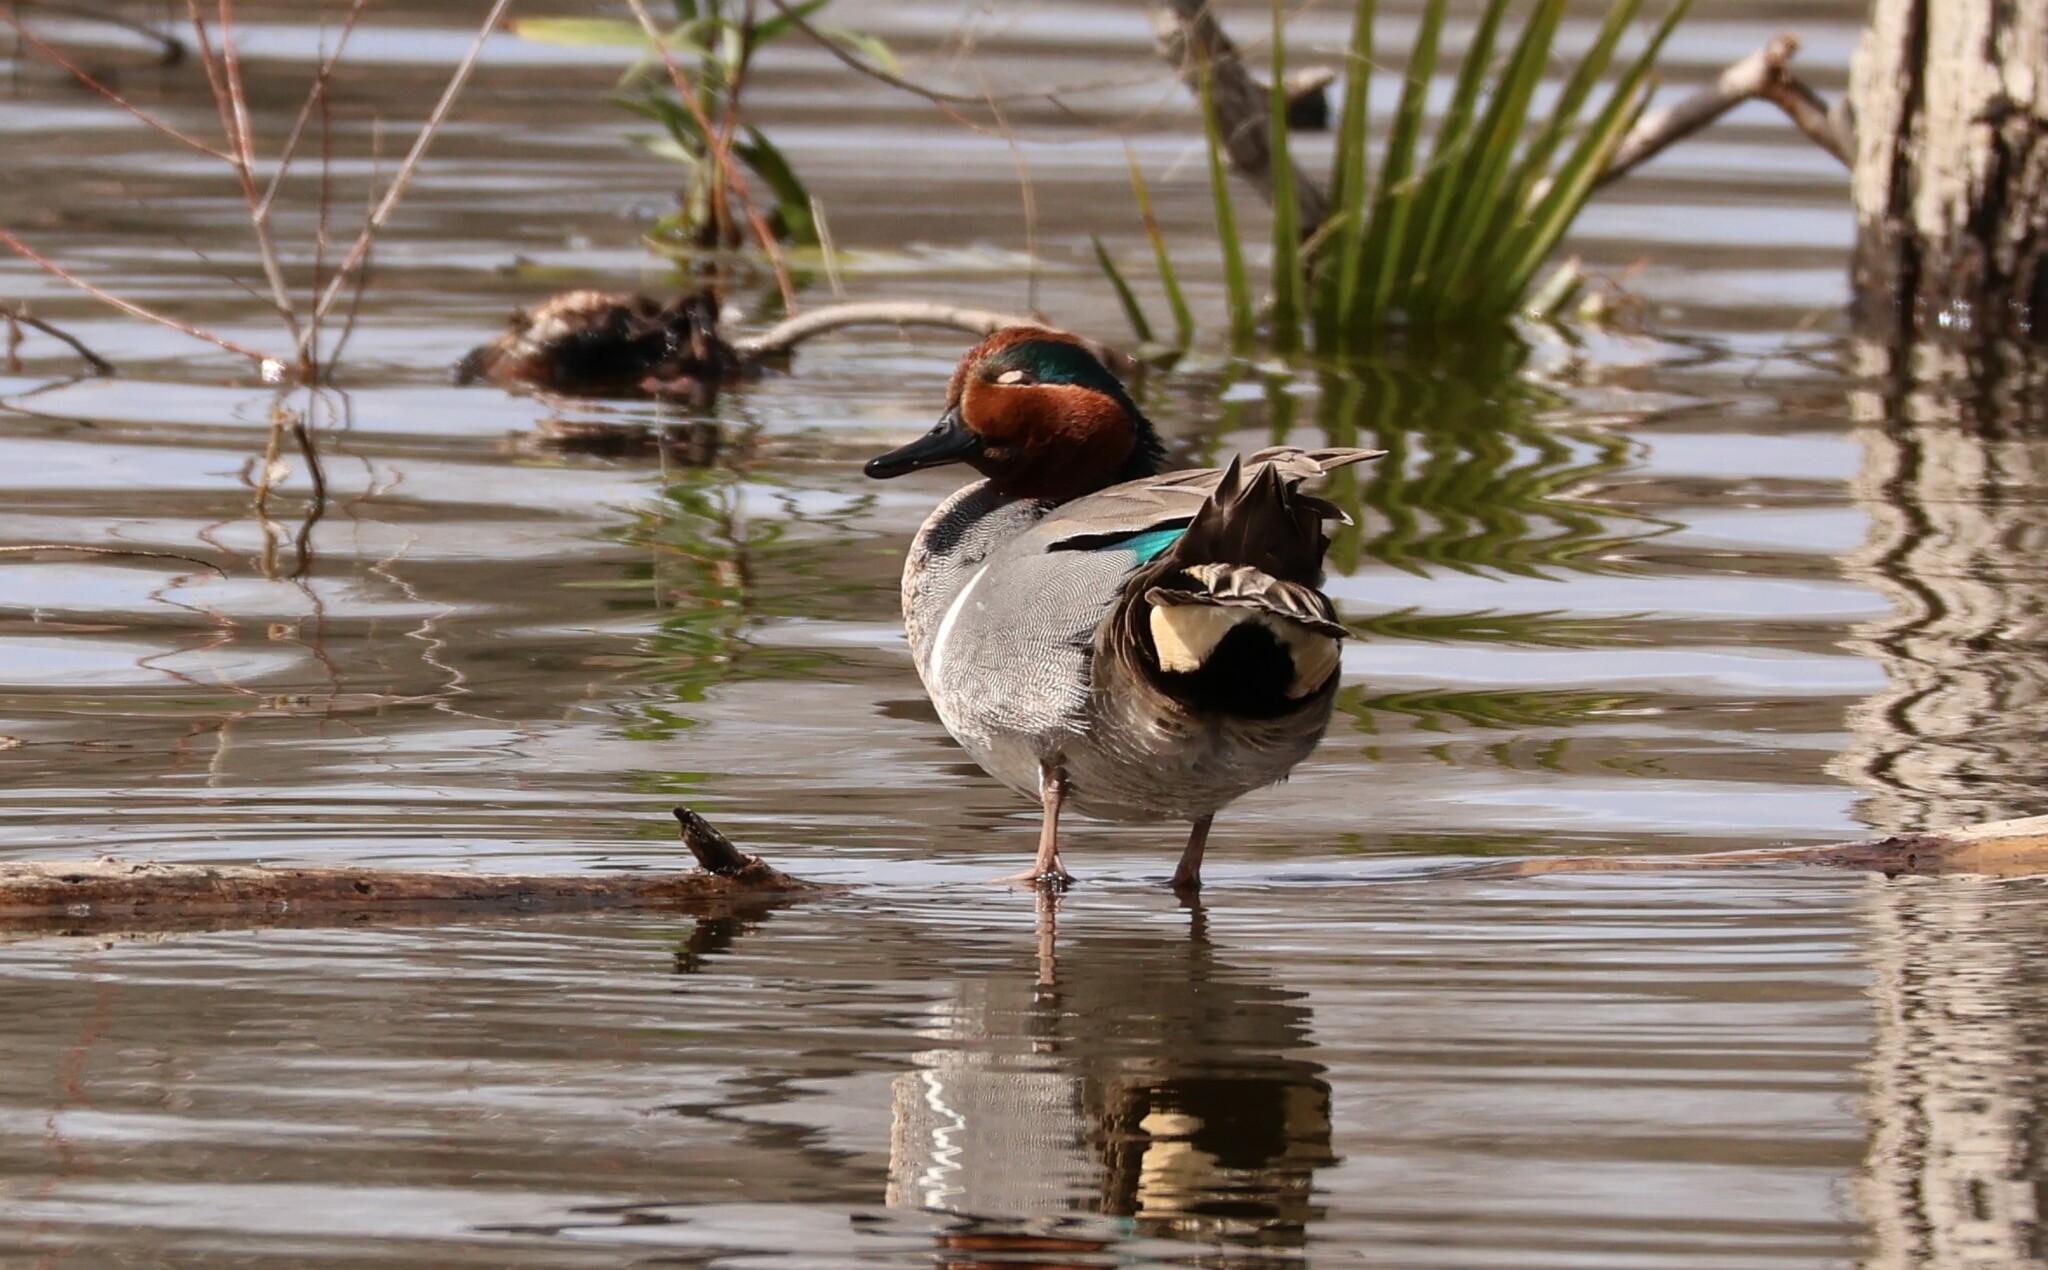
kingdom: Animalia
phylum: Chordata
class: Aves
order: Anseriformes
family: Anatidae
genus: Anas
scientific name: Anas crecca
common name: Eurasian teal
